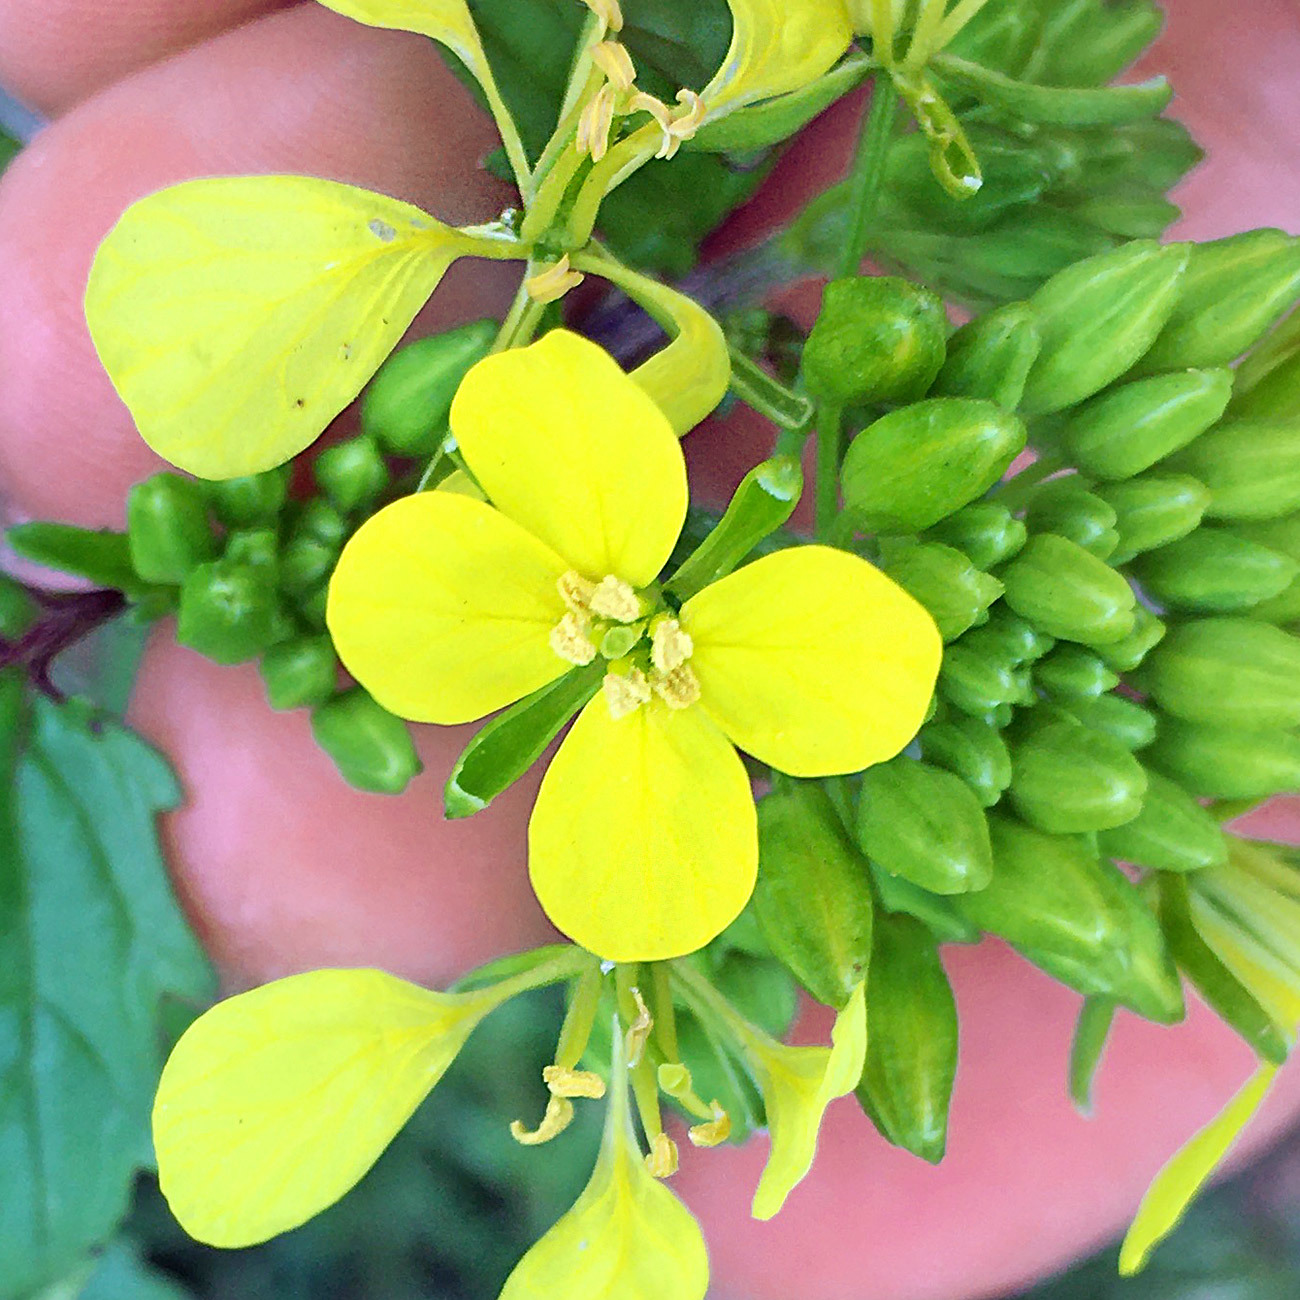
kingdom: Plantae
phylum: Tracheophyta
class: Magnoliopsida
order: Brassicales
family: Brassicaceae
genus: Sinapis
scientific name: Sinapis arvensis
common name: Charlock
